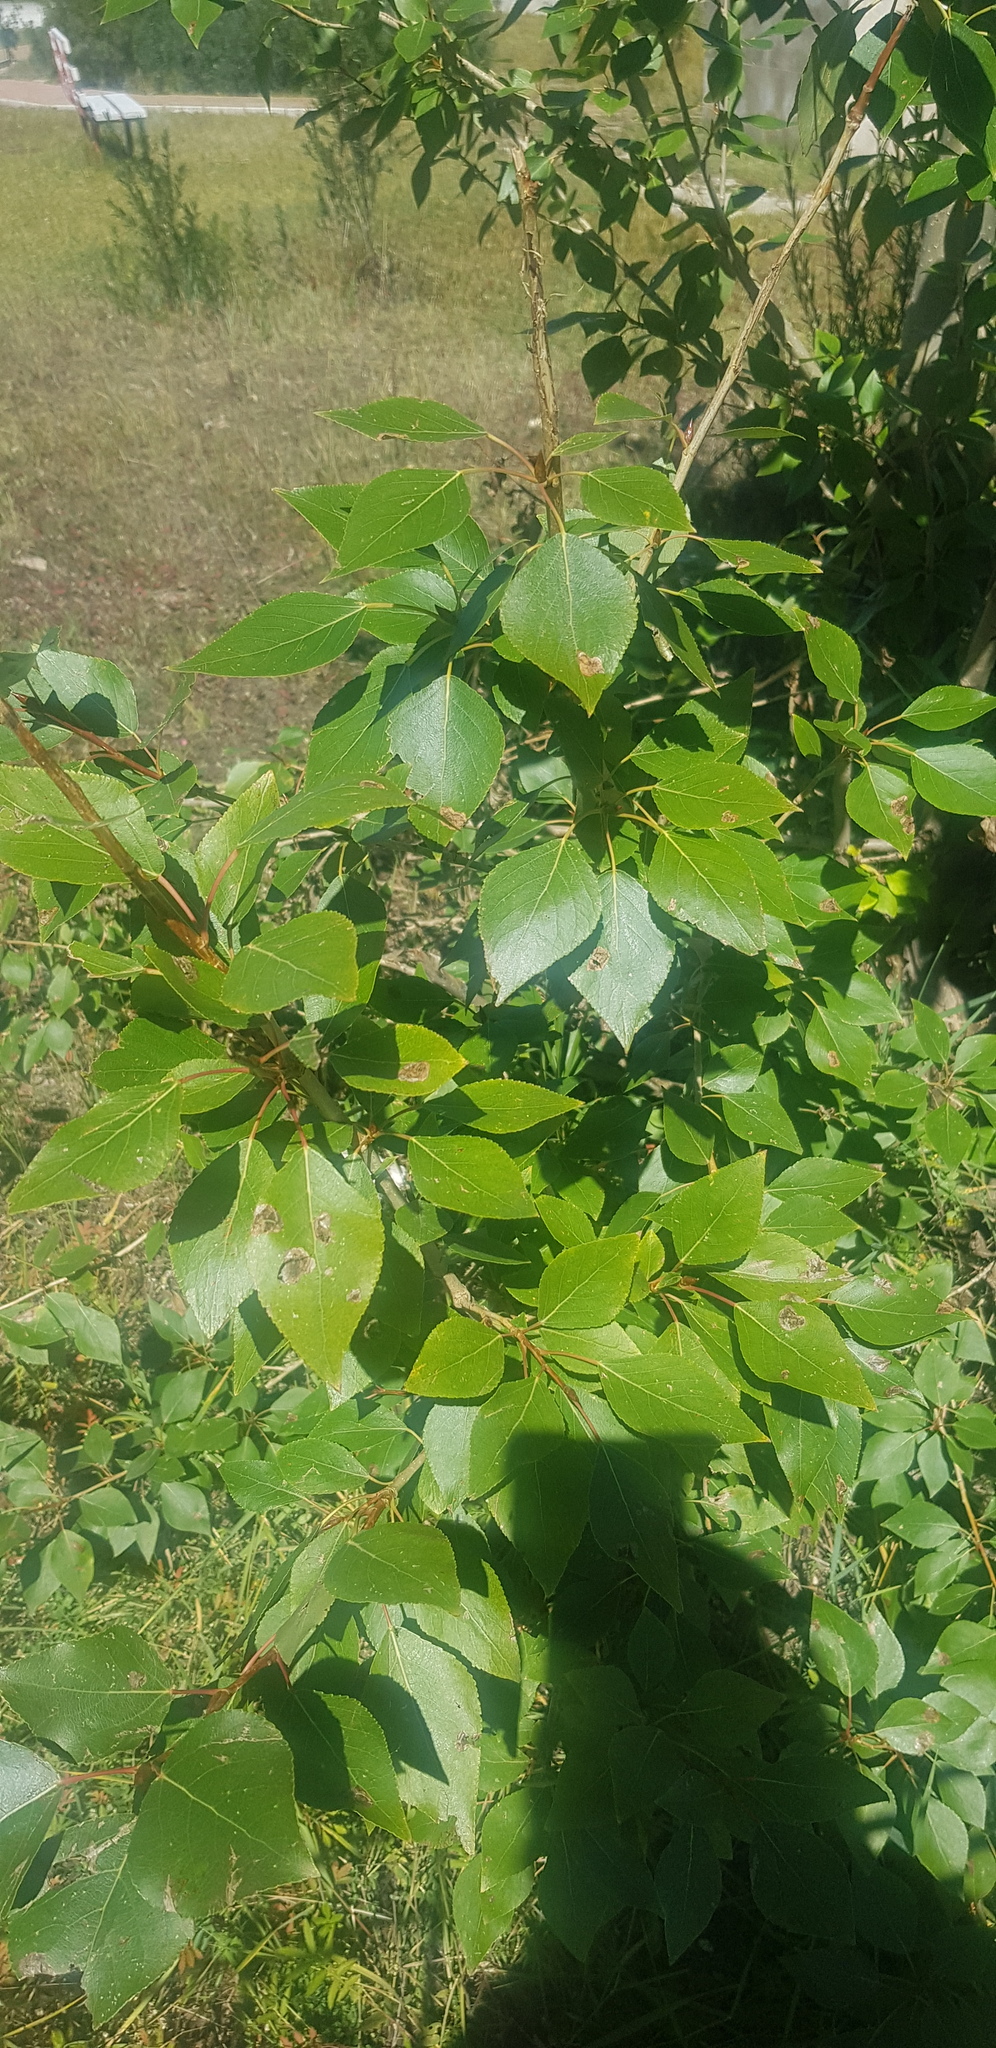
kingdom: Plantae
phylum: Tracheophyta
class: Magnoliopsida
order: Malpighiales
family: Salicaceae
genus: Populus
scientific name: Populus laurifolia
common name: Laurel-leaf poplar
